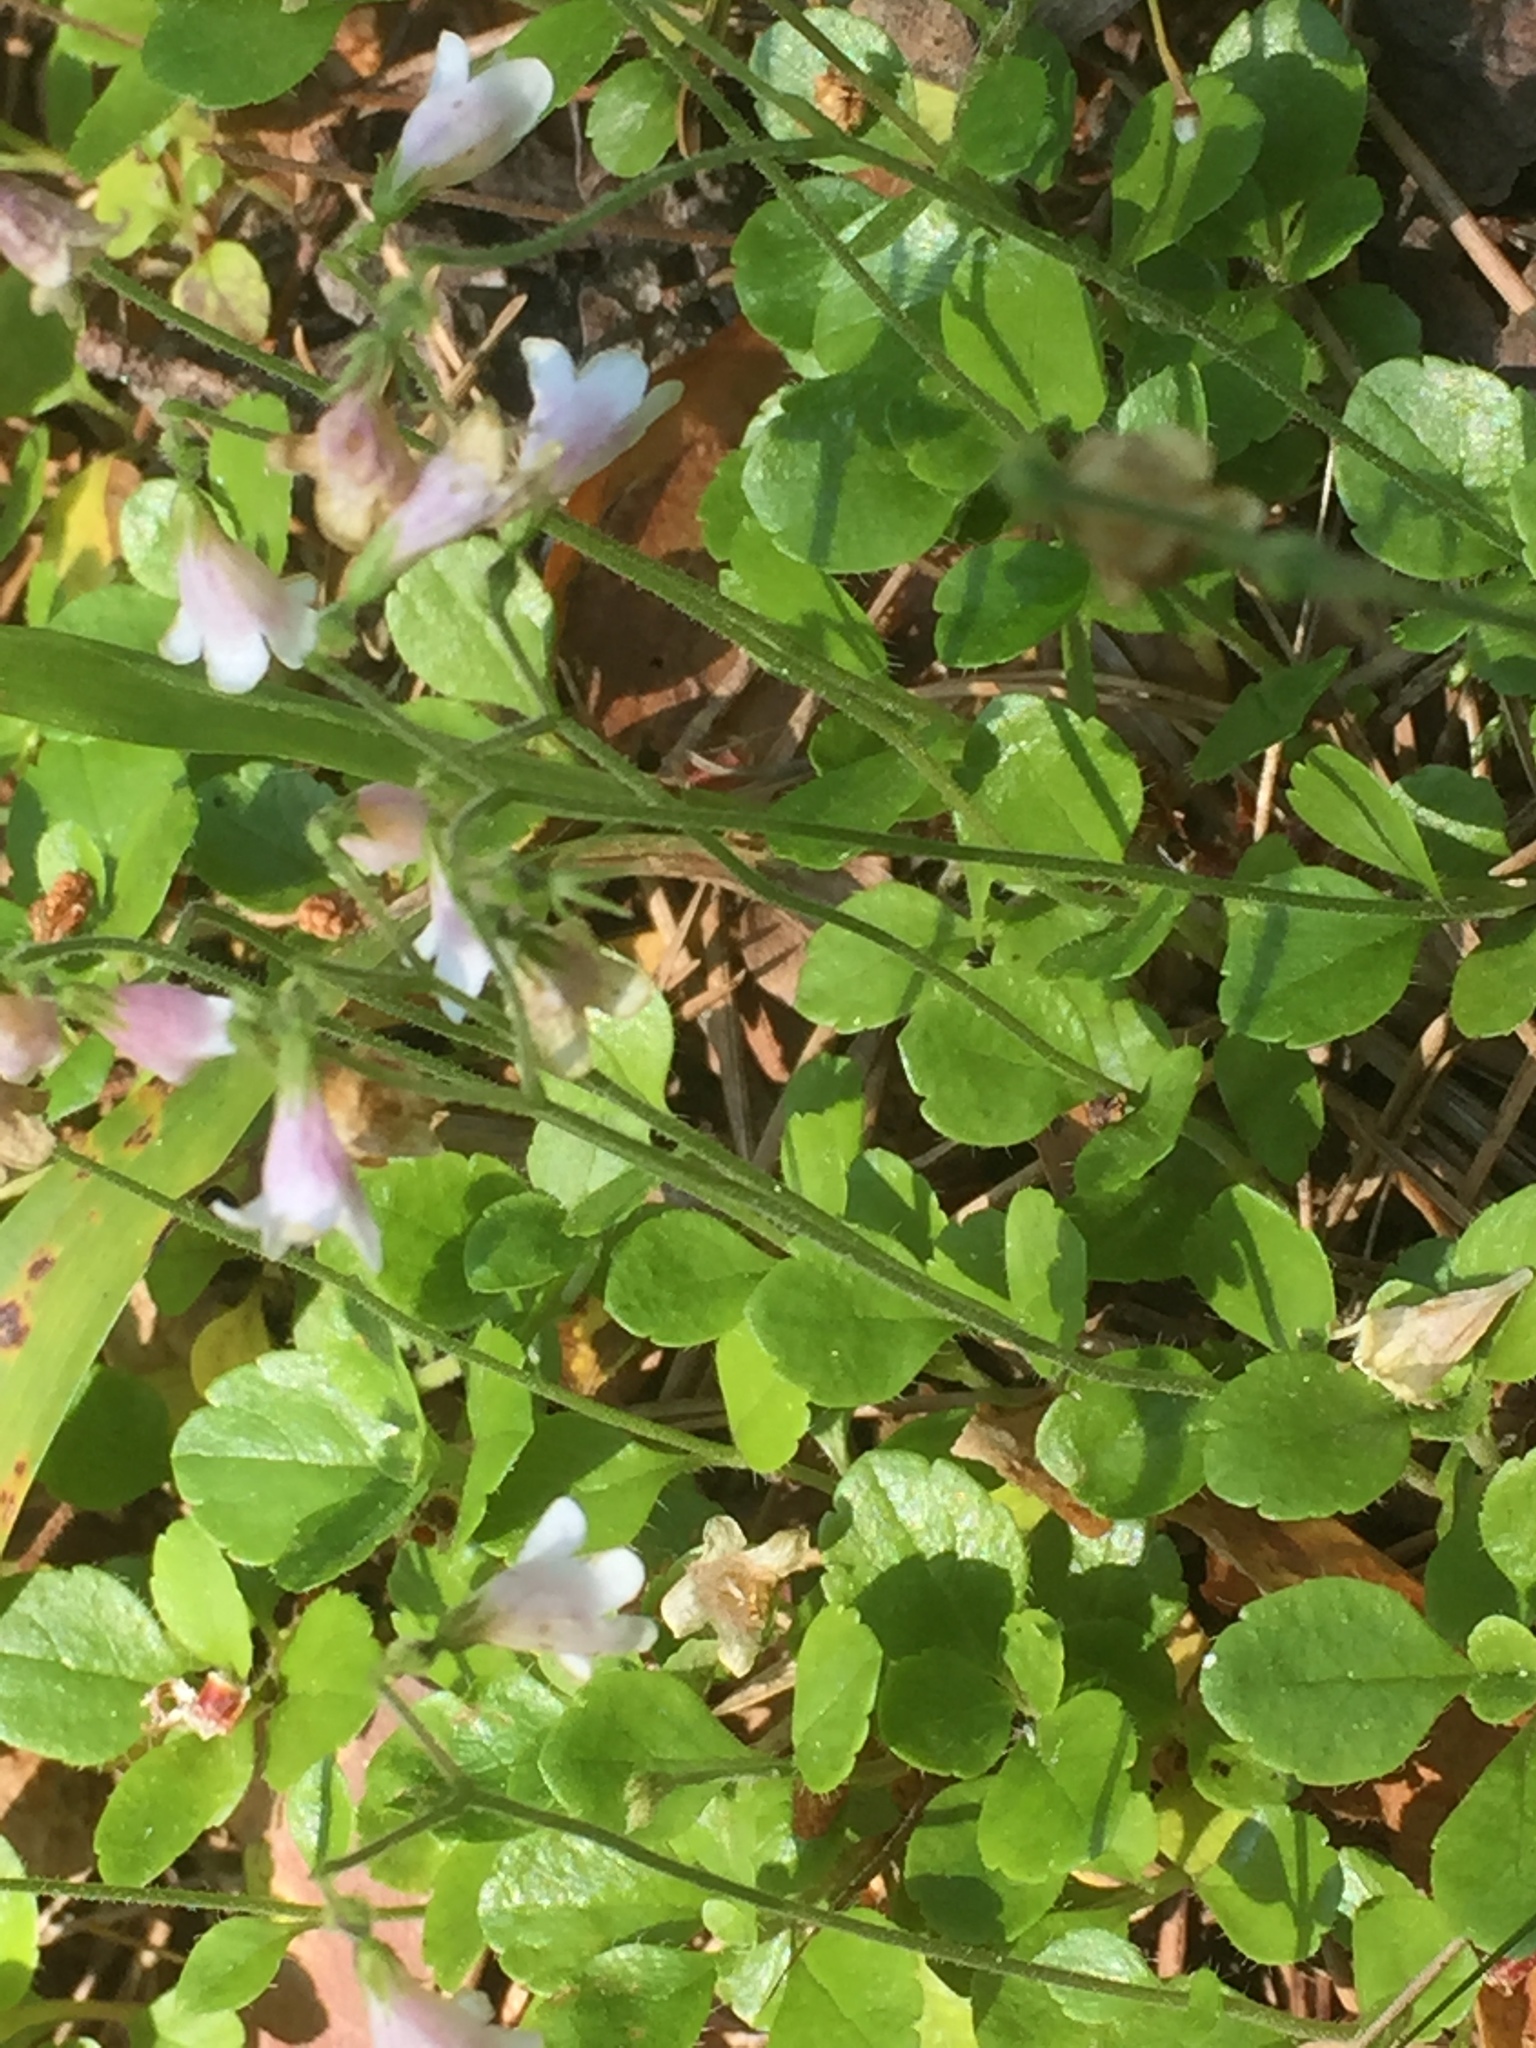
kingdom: Plantae
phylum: Tracheophyta
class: Magnoliopsida
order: Dipsacales
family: Caprifoliaceae
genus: Linnaea
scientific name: Linnaea borealis
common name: Twinflower
